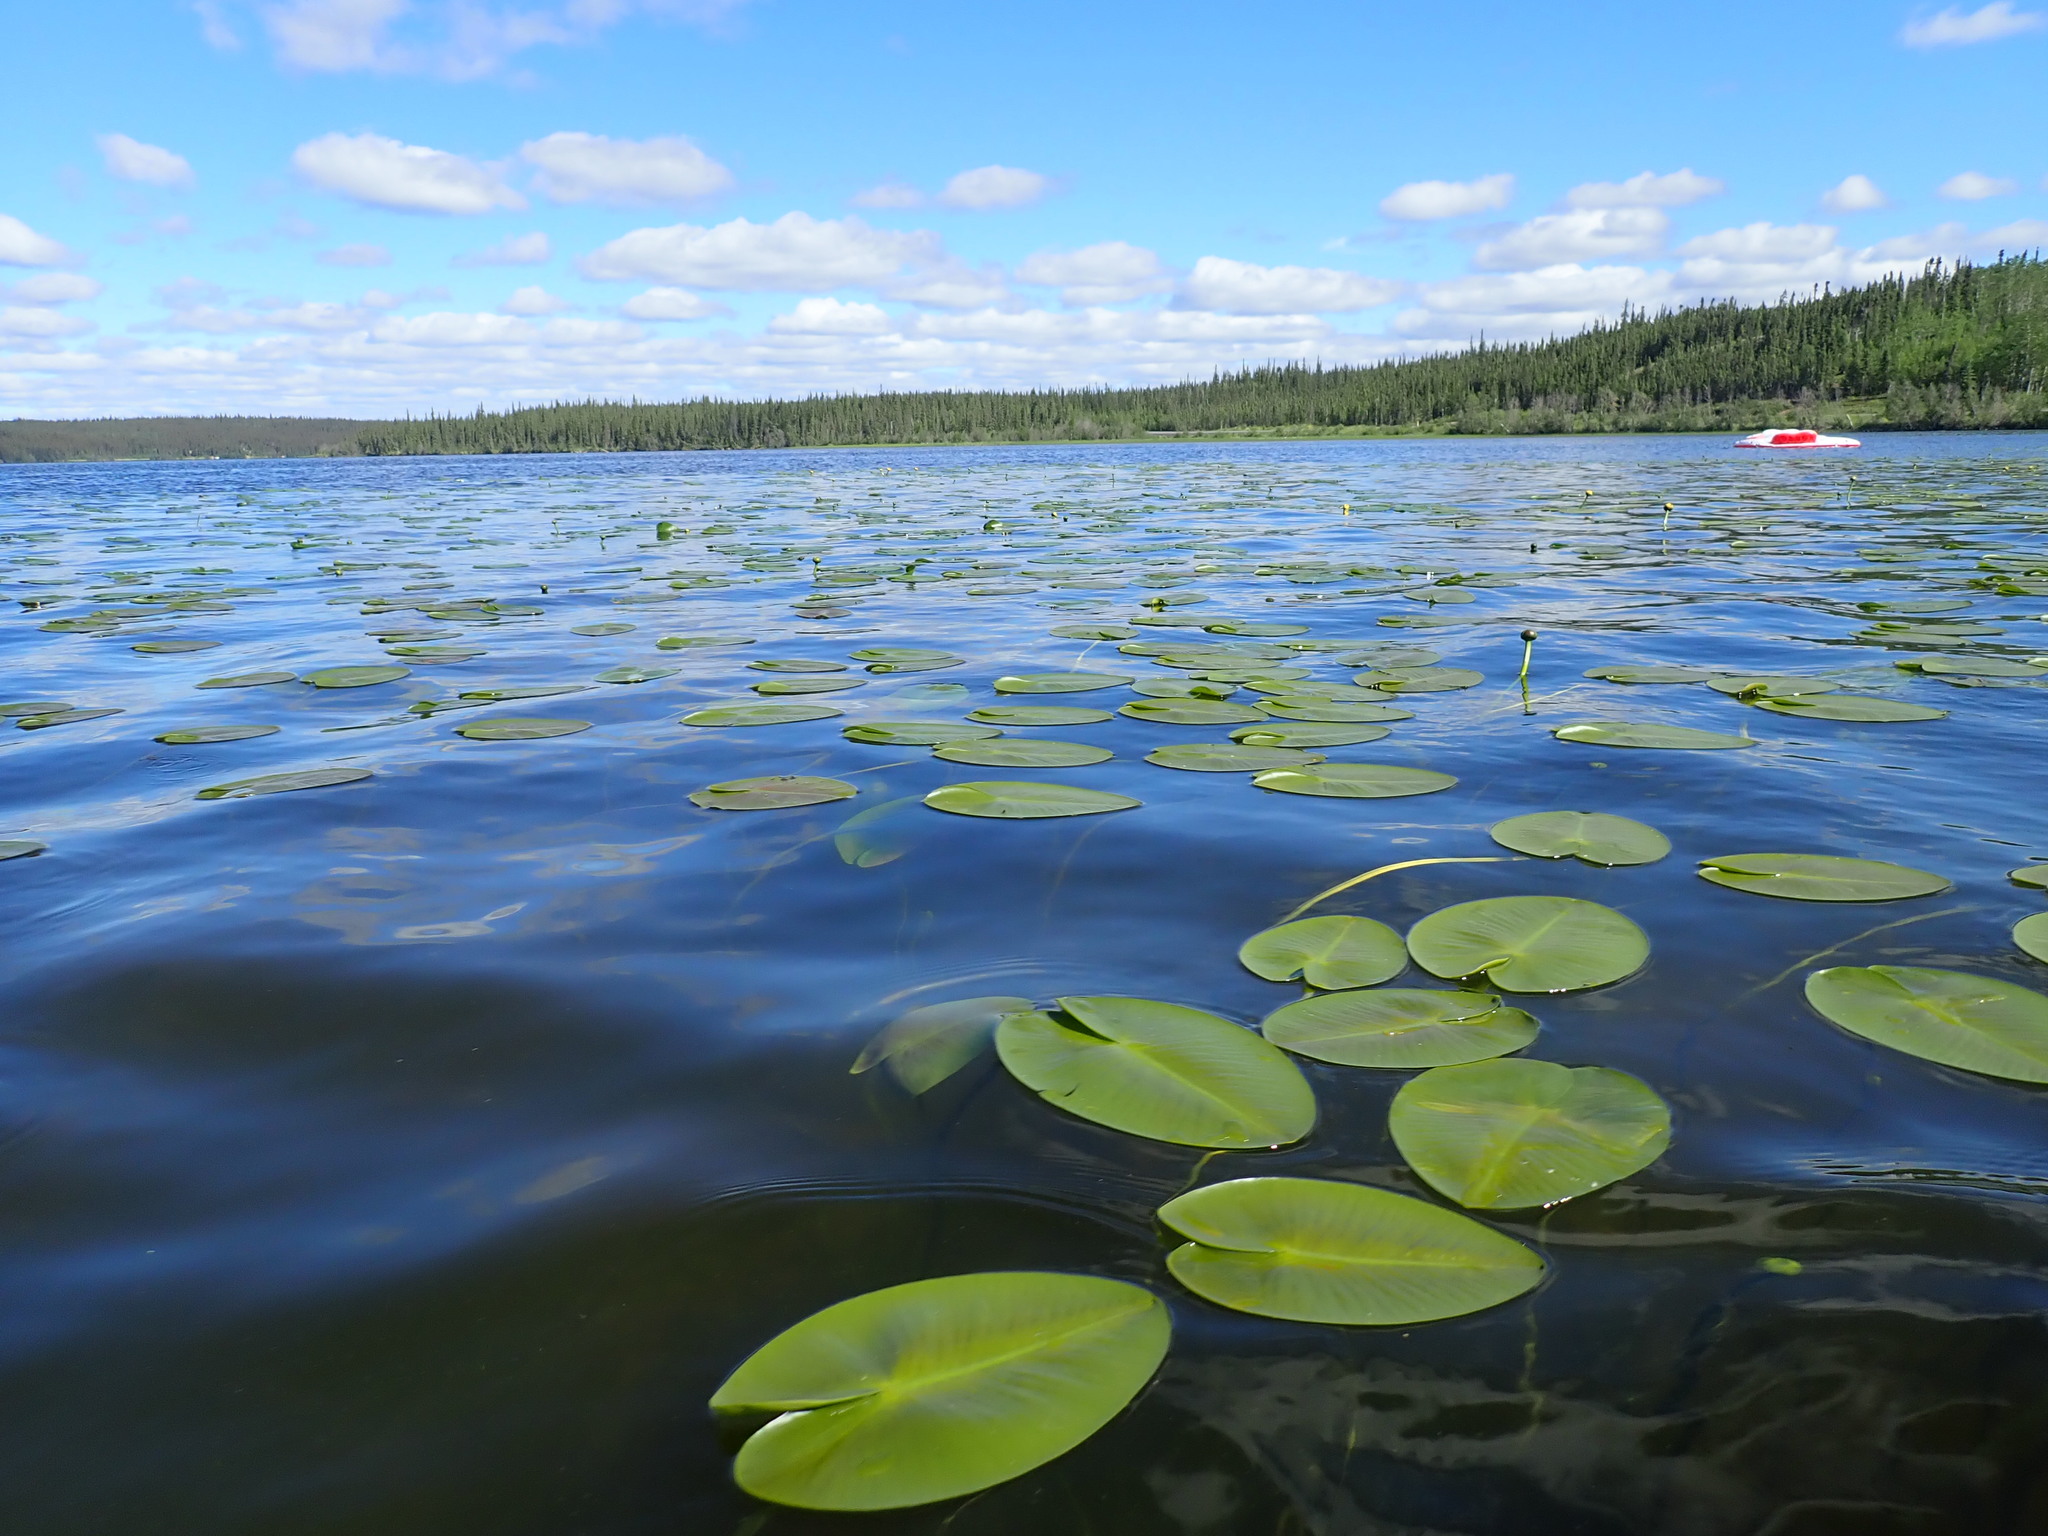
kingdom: Plantae
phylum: Tracheophyta
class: Magnoliopsida
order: Nymphaeales
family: Nymphaeaceae
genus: Nuphar
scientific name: Nuphar variegata
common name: Beaver-root
